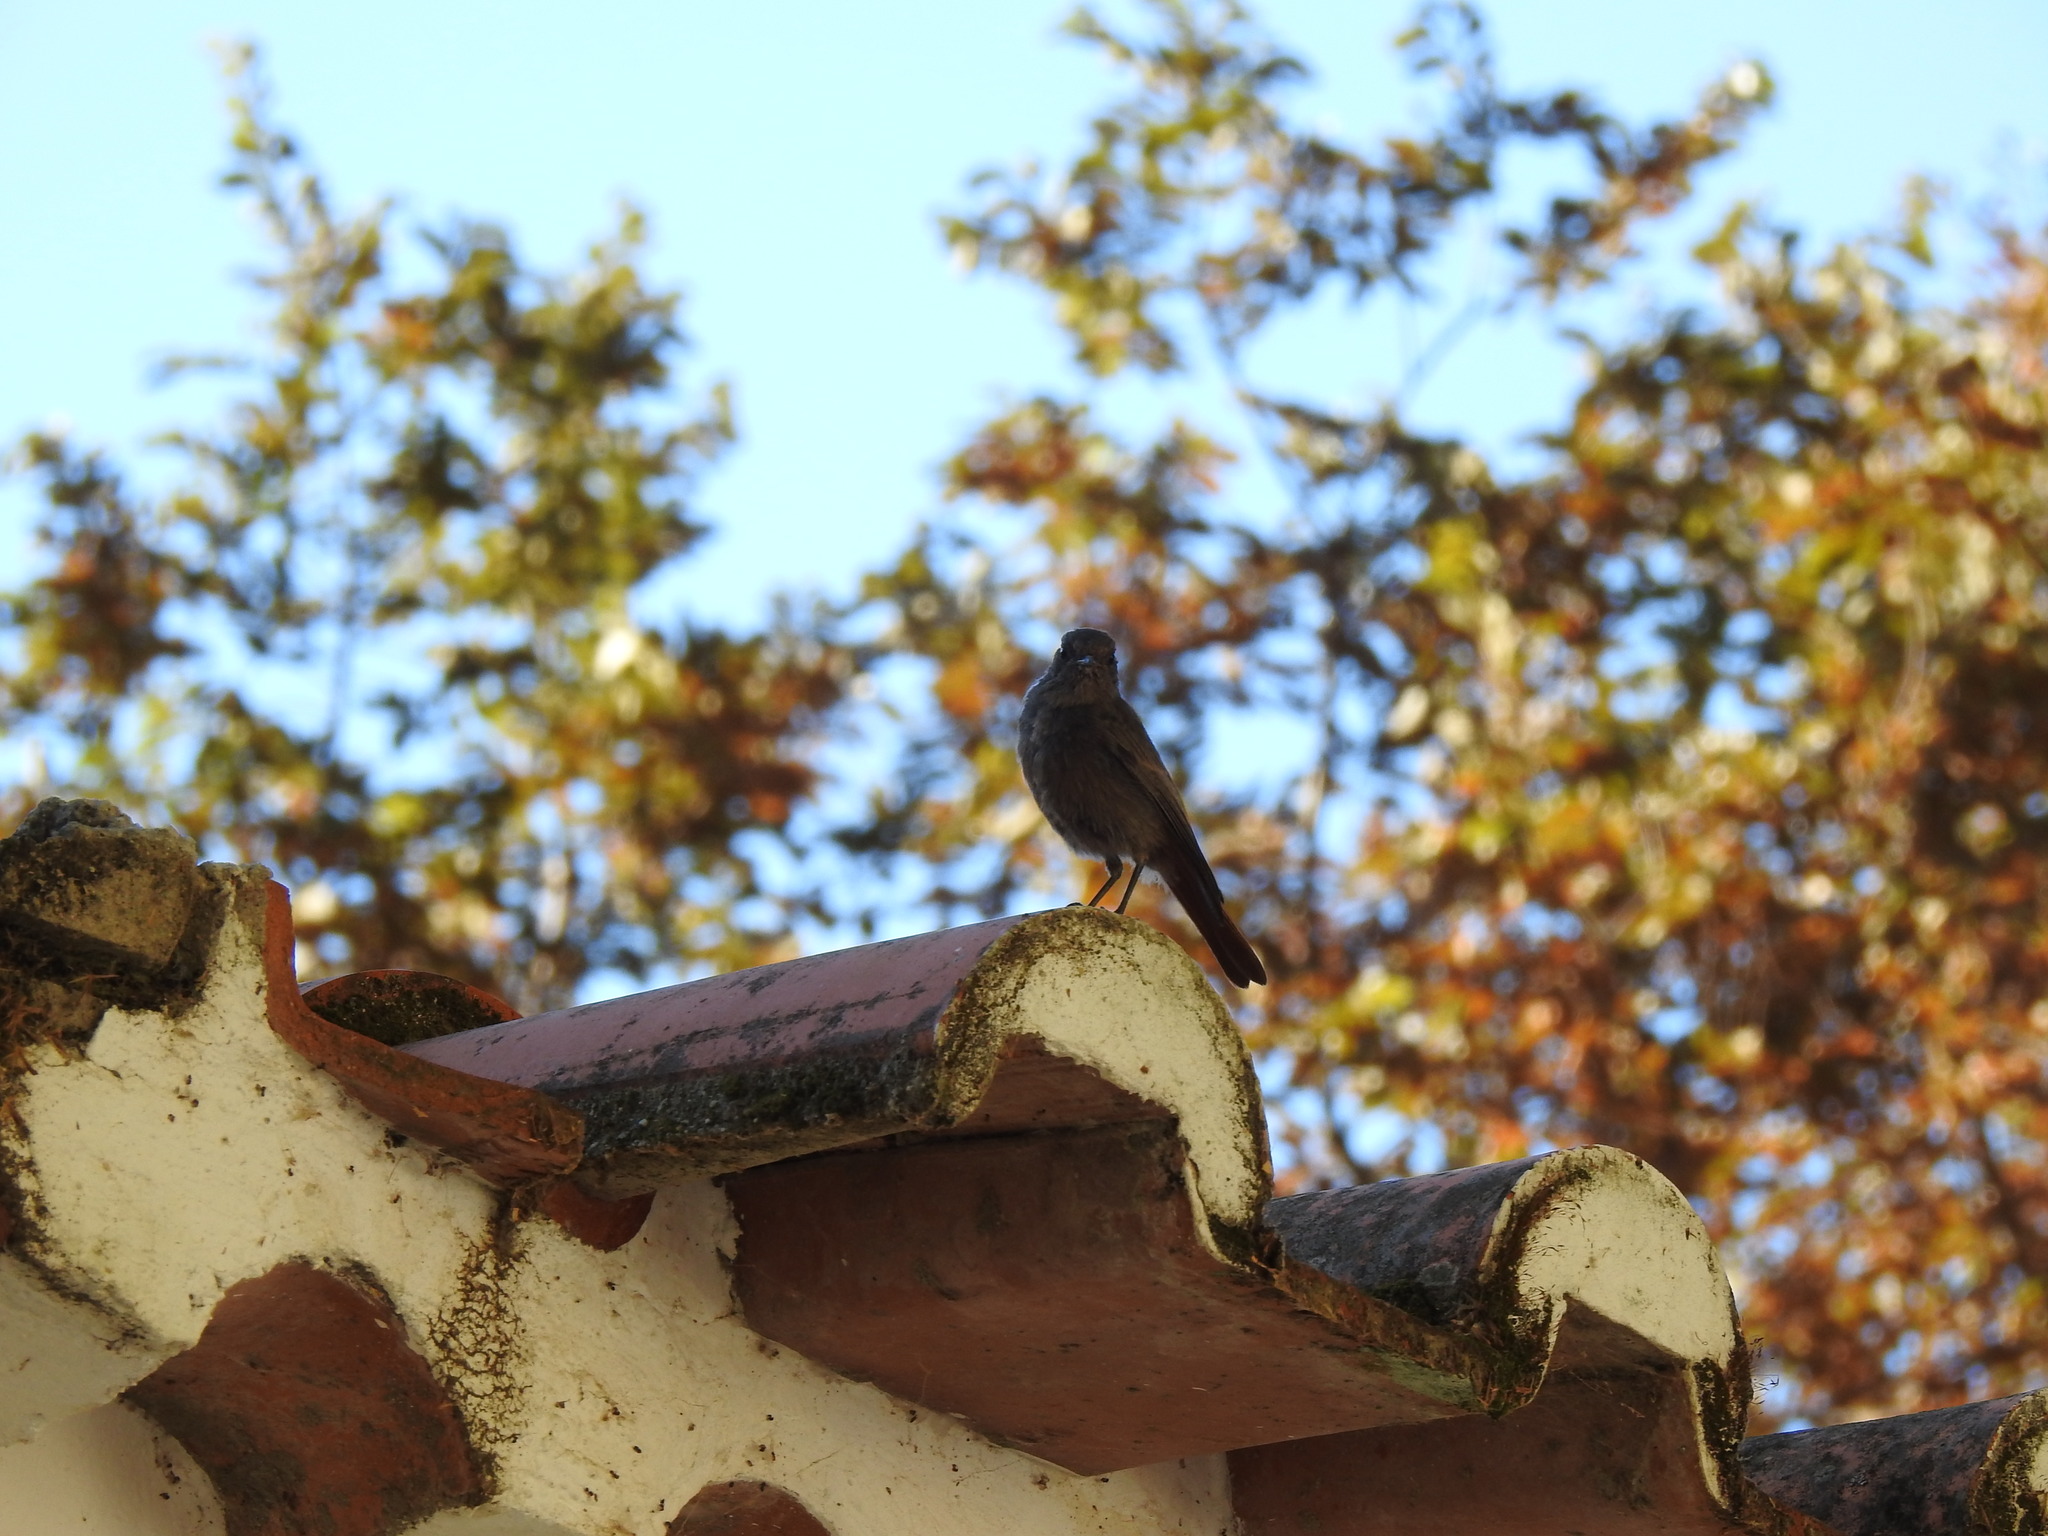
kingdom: Animalia
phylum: Chordata
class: Aves
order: Passeriformes
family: Muscicapidae
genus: Phoenicurus
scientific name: Phoenicurus ochruros
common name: Black redstart
